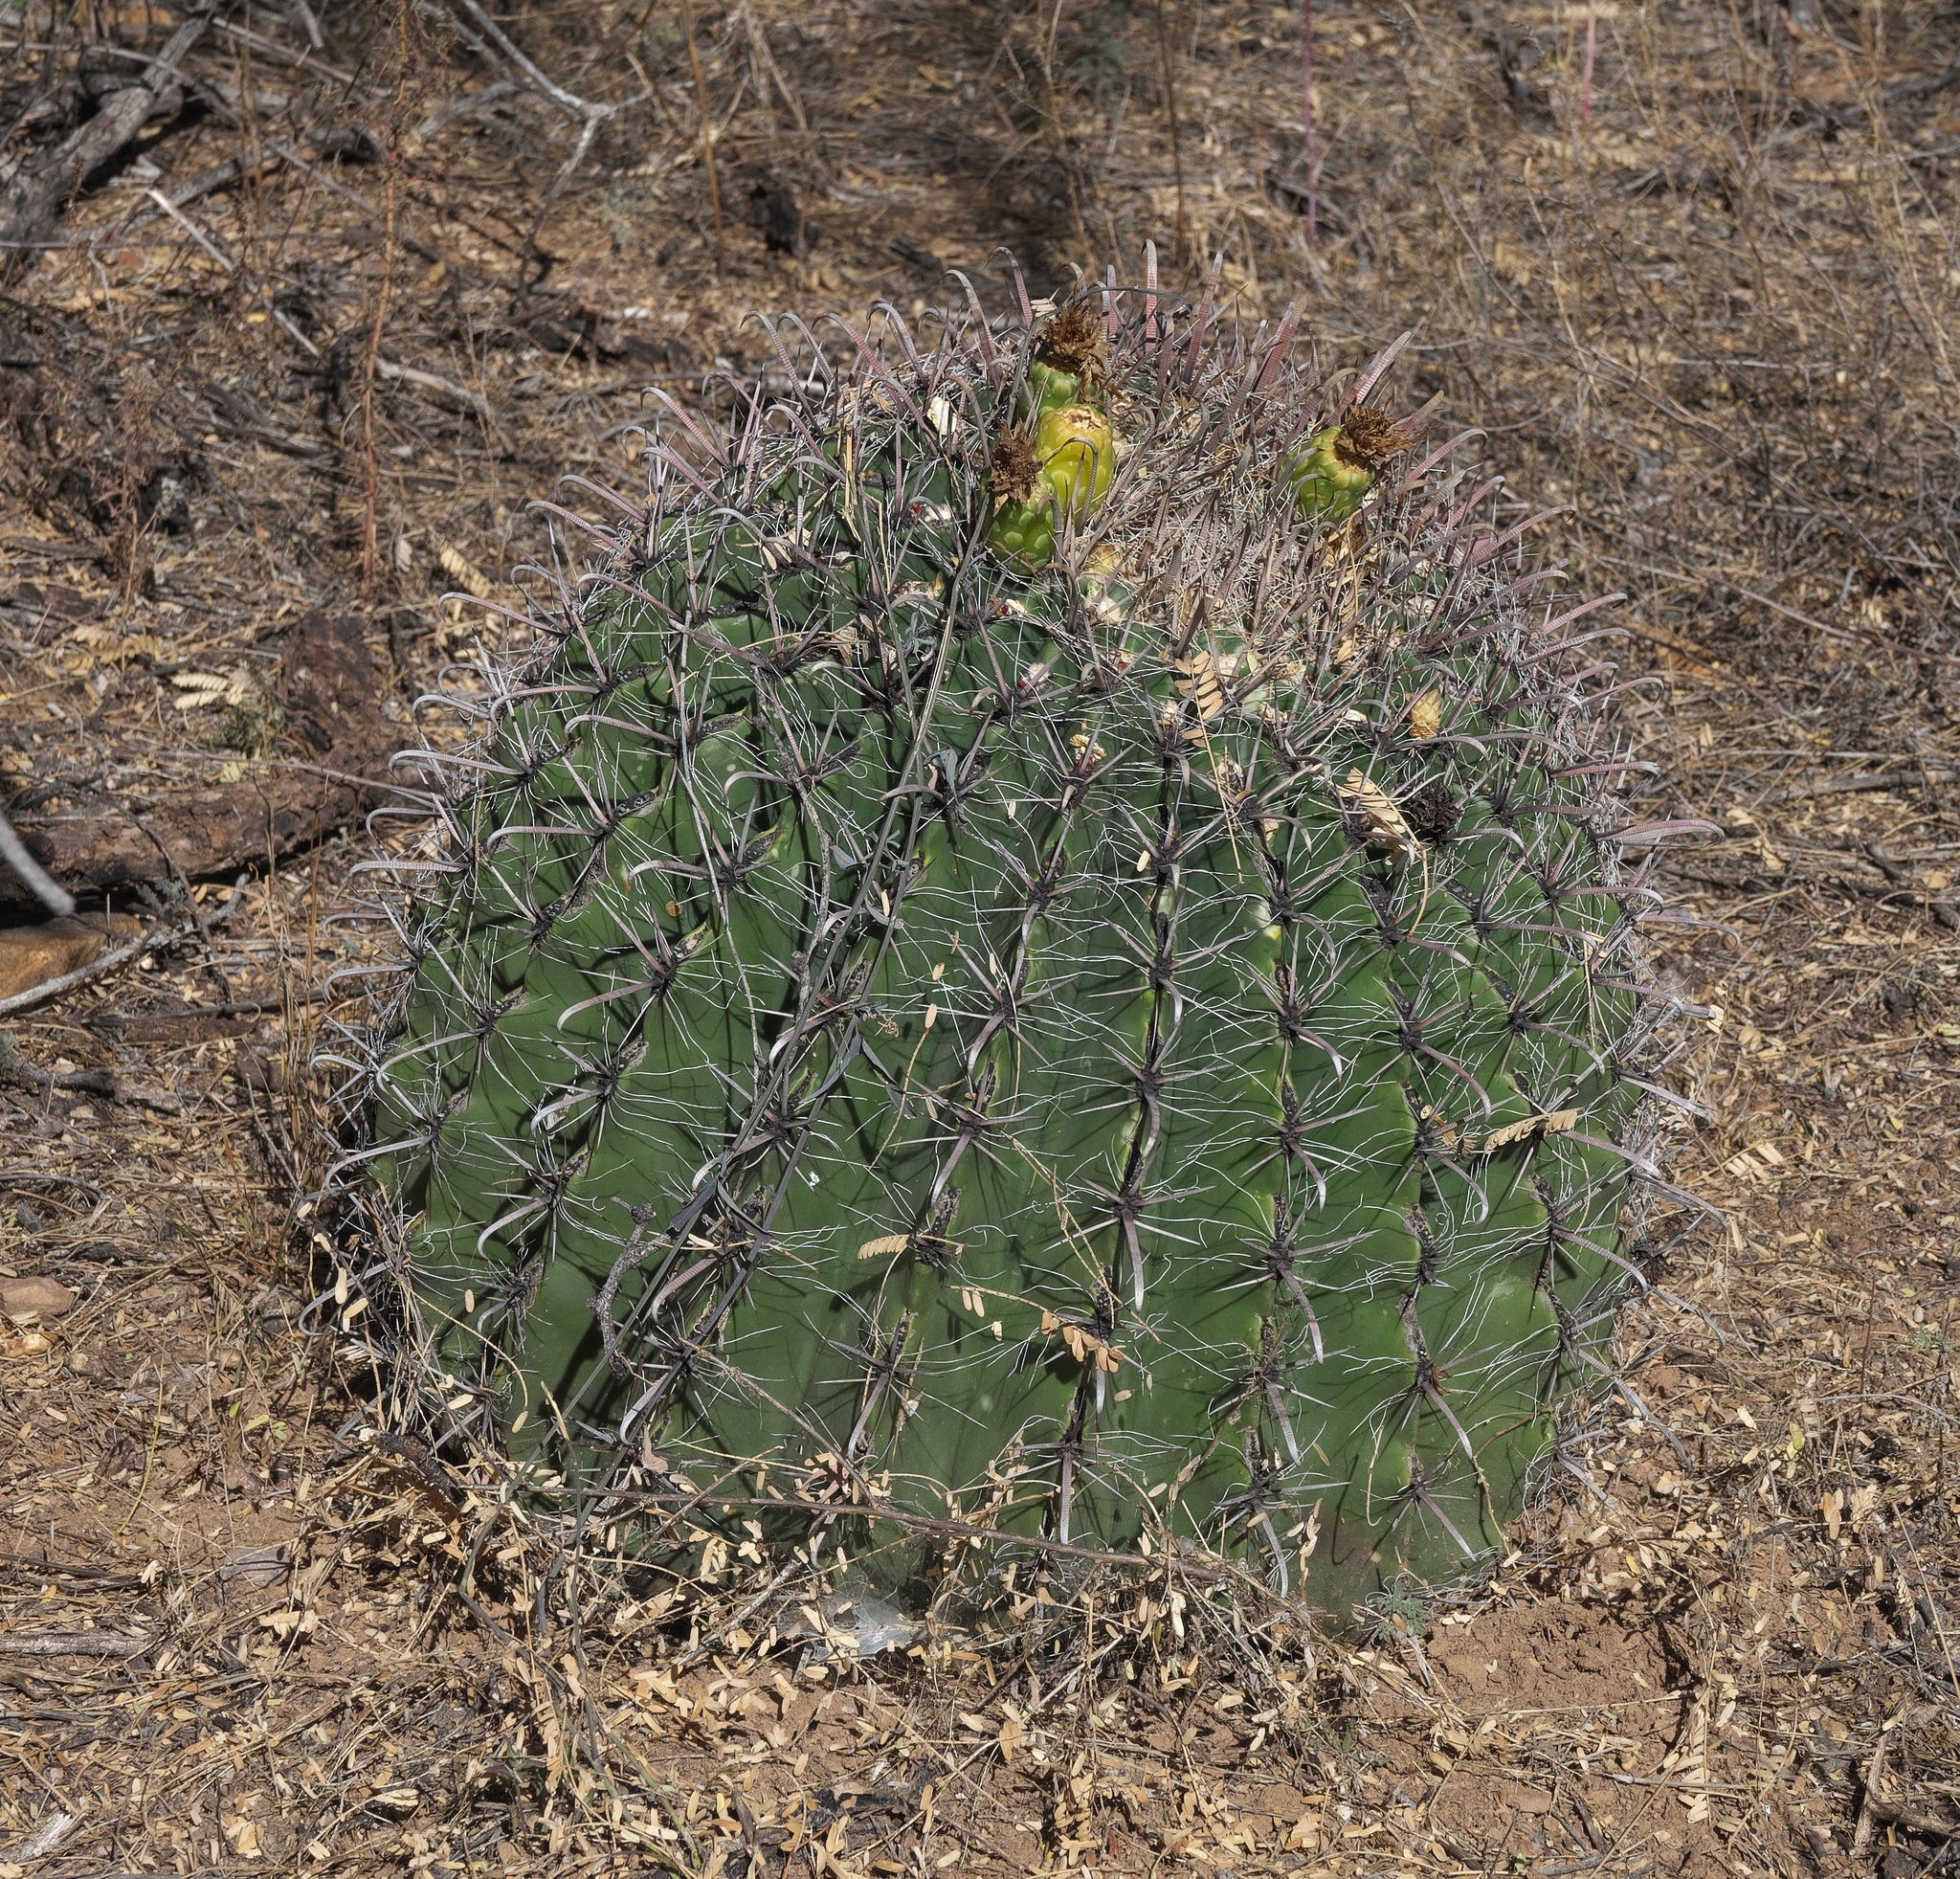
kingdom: Plantae
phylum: Tracheophyta
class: Magnoliopsida
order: Caryophyllales
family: Cactaceae
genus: Ferocactus
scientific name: Ferocactus wislizeni
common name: Candy barrel cactus
